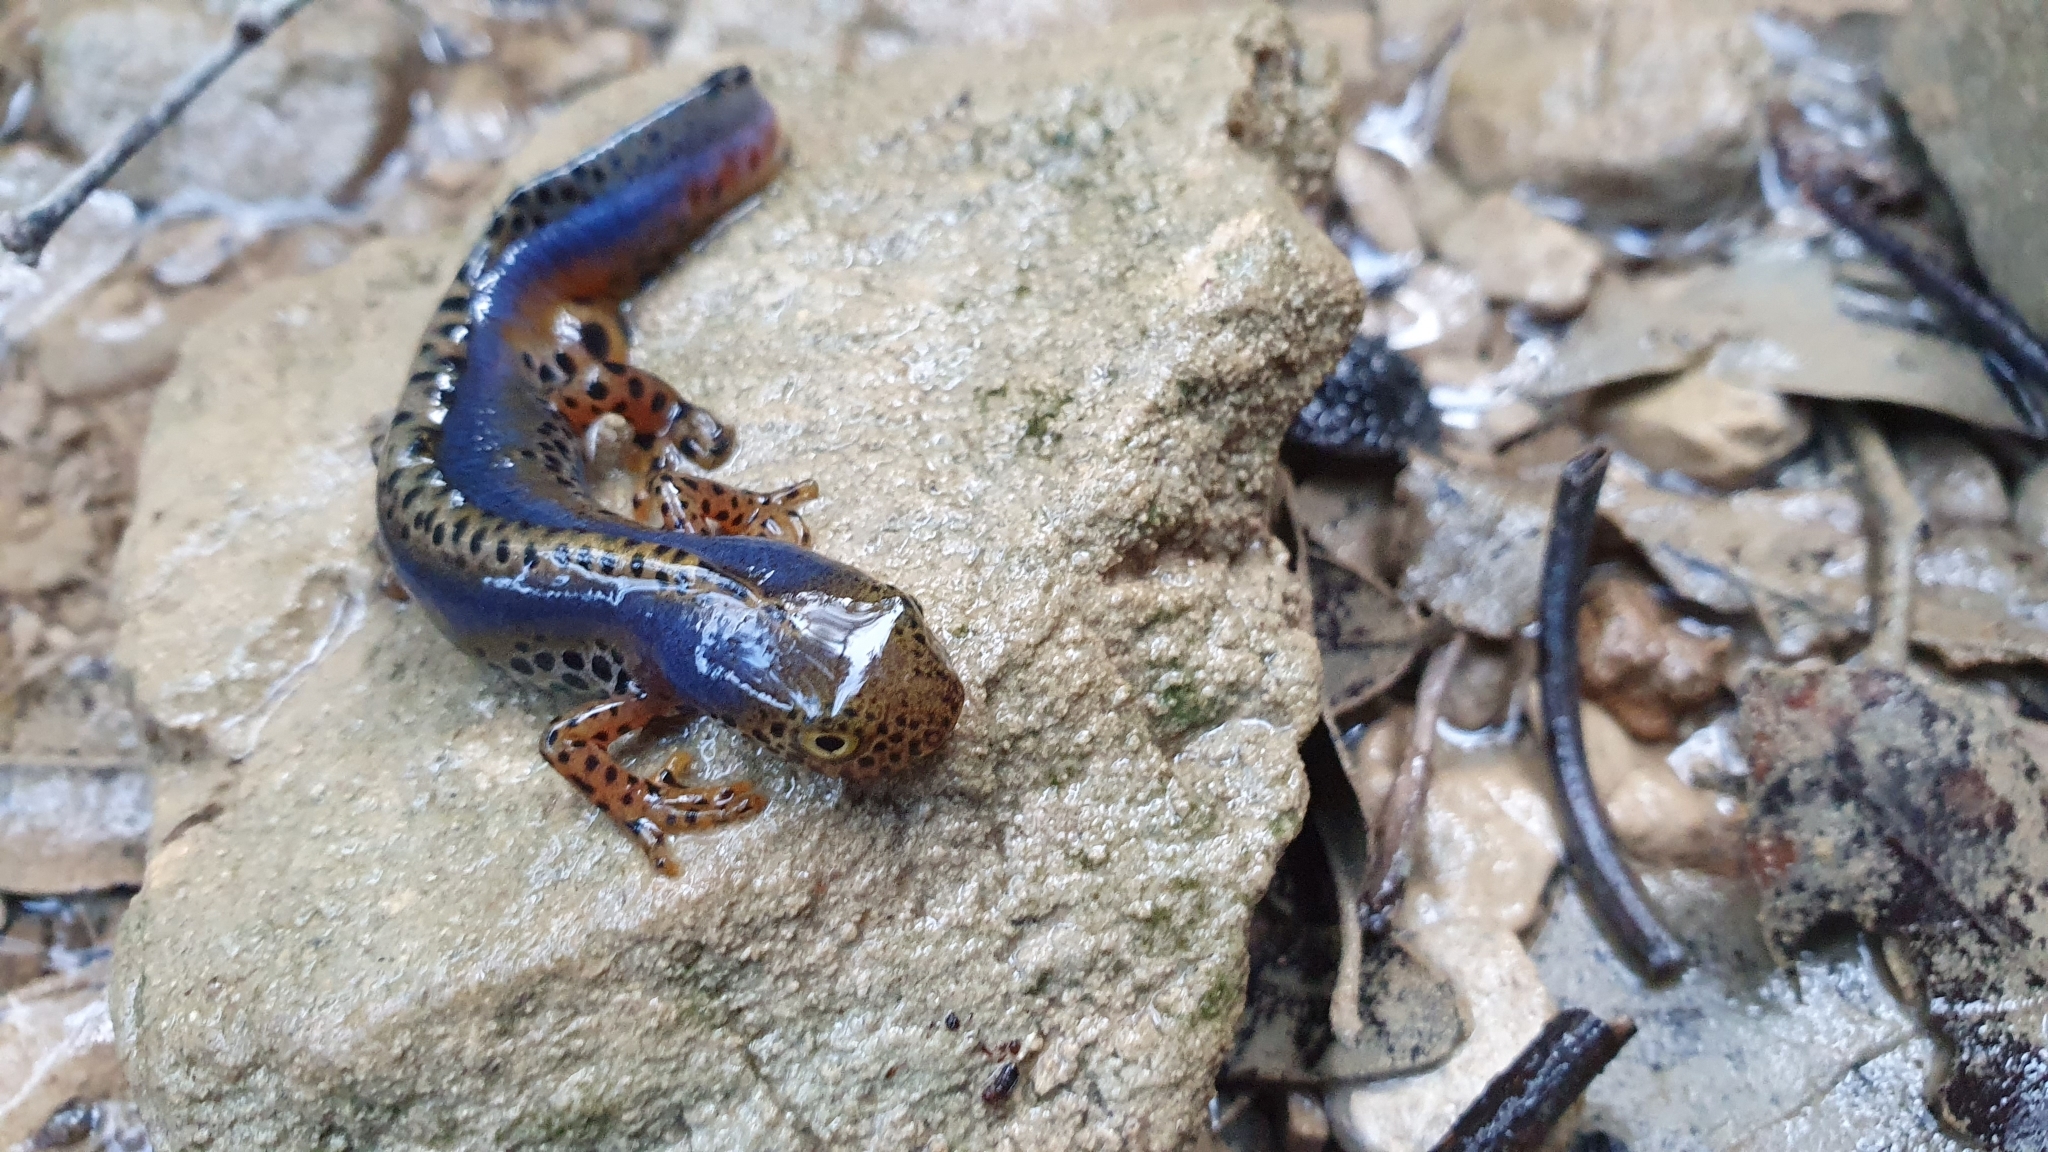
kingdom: Animalia
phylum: Chordata
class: Amphibia
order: Caudata
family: Salamandridae
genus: Ichthyosaura
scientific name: Ichthyosaura alpestris
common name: Alpine newt
